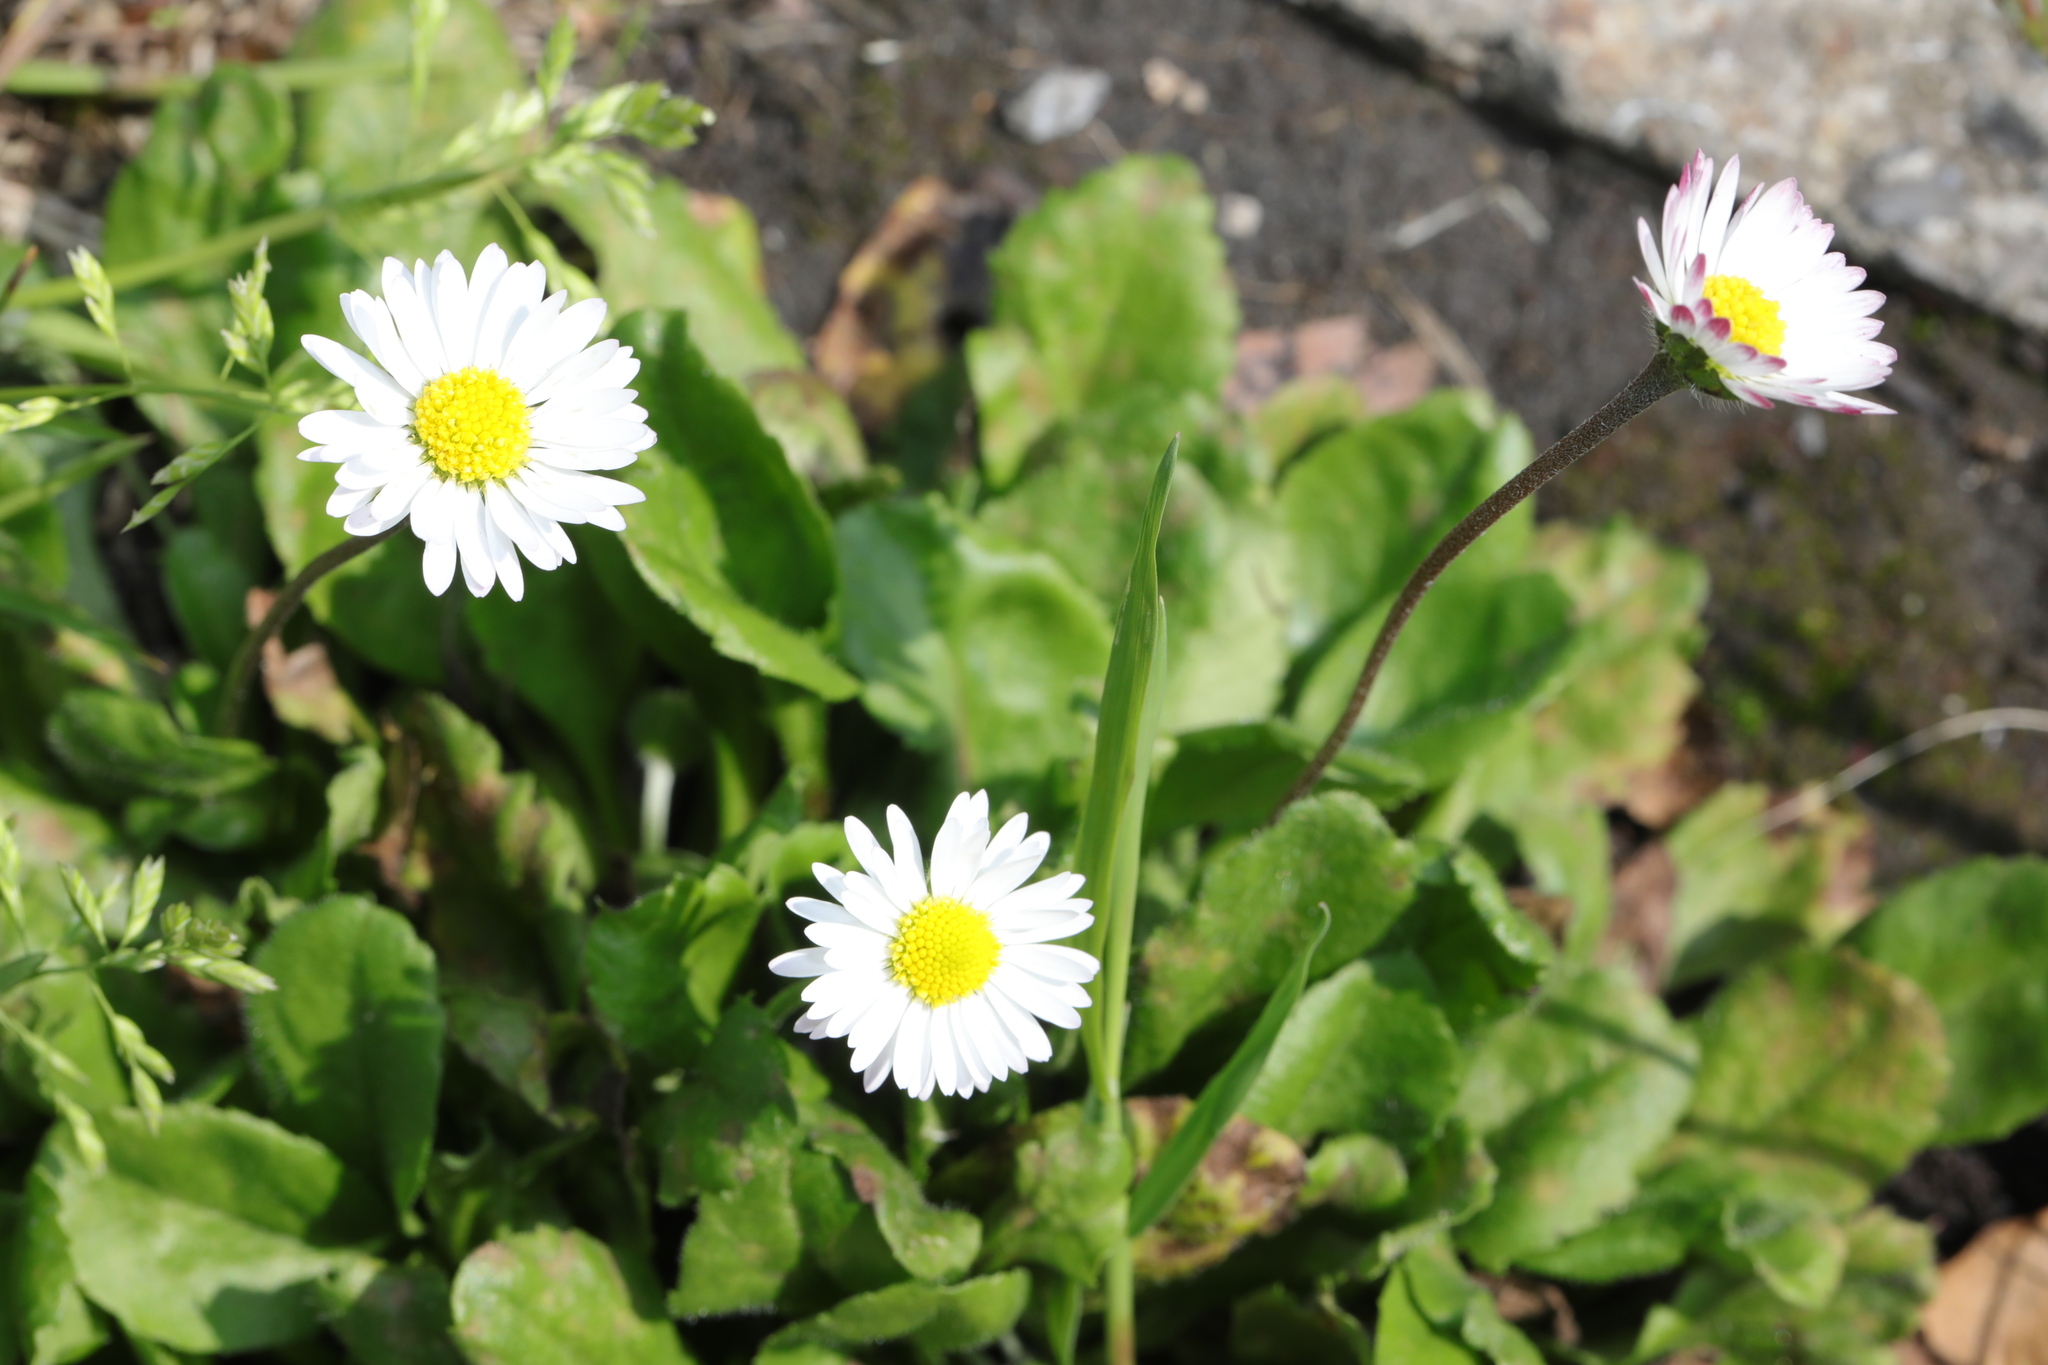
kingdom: Plantae
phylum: Tracheophyta
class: Magnoliopsida
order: Asterales
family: Asteraceae
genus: Bellis
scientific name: Bellis perennis
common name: Lawndaisy
